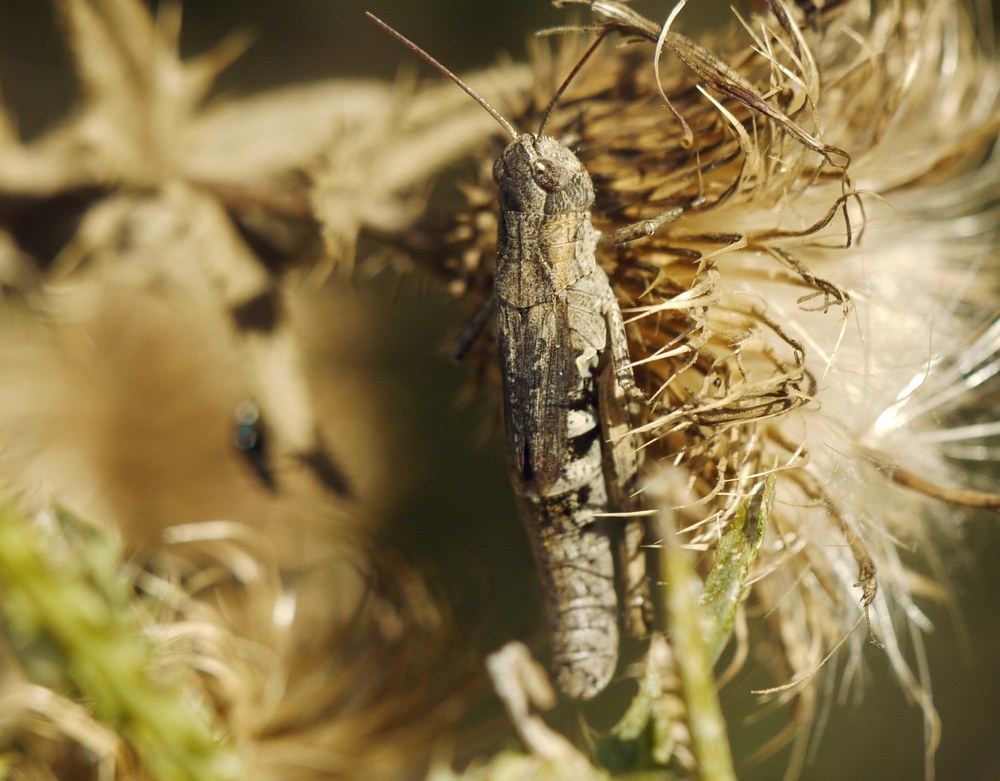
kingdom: Animalia
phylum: Arthropoda
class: Insecta
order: Orthoptera
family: Acrididae
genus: Chorthippus
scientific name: Chorthippus macrocerus
